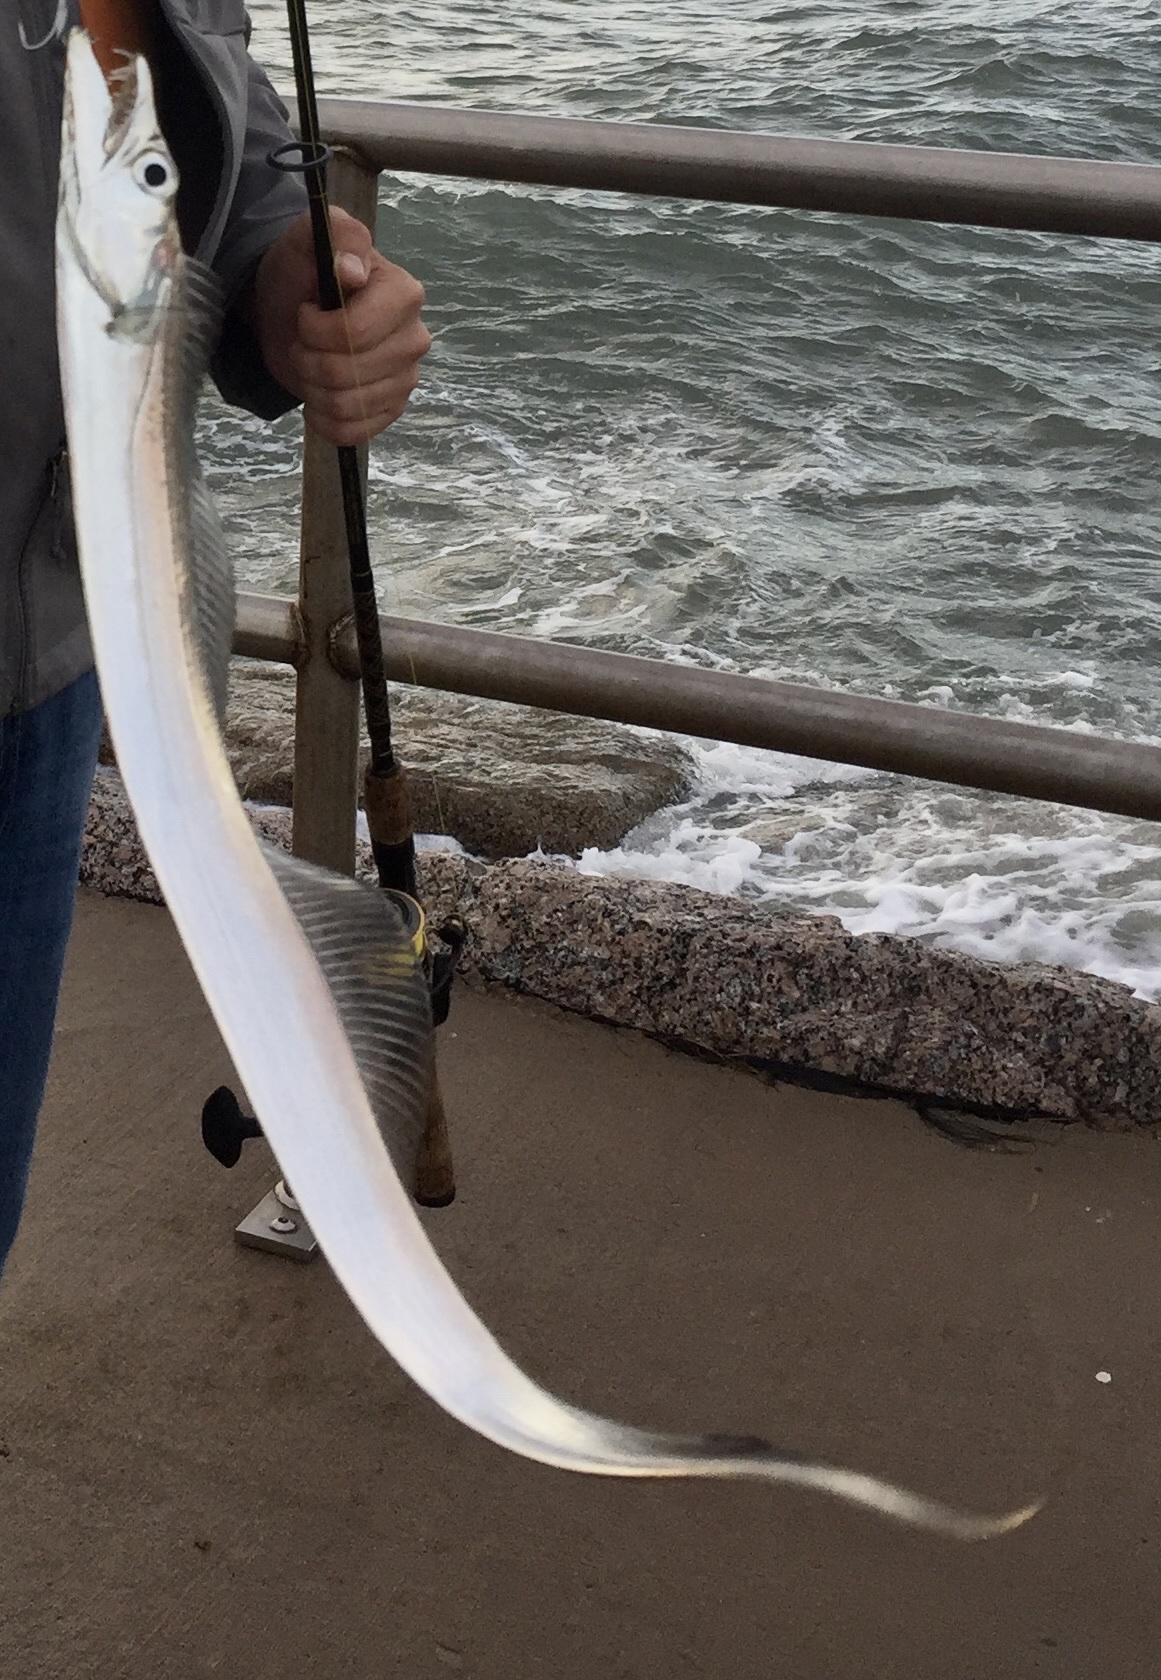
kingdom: Animalia
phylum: Chordata
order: Perciformes
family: Trichiuridae
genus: Trichiurus
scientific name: Trichiurus lepturus
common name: Largehead hairtail
